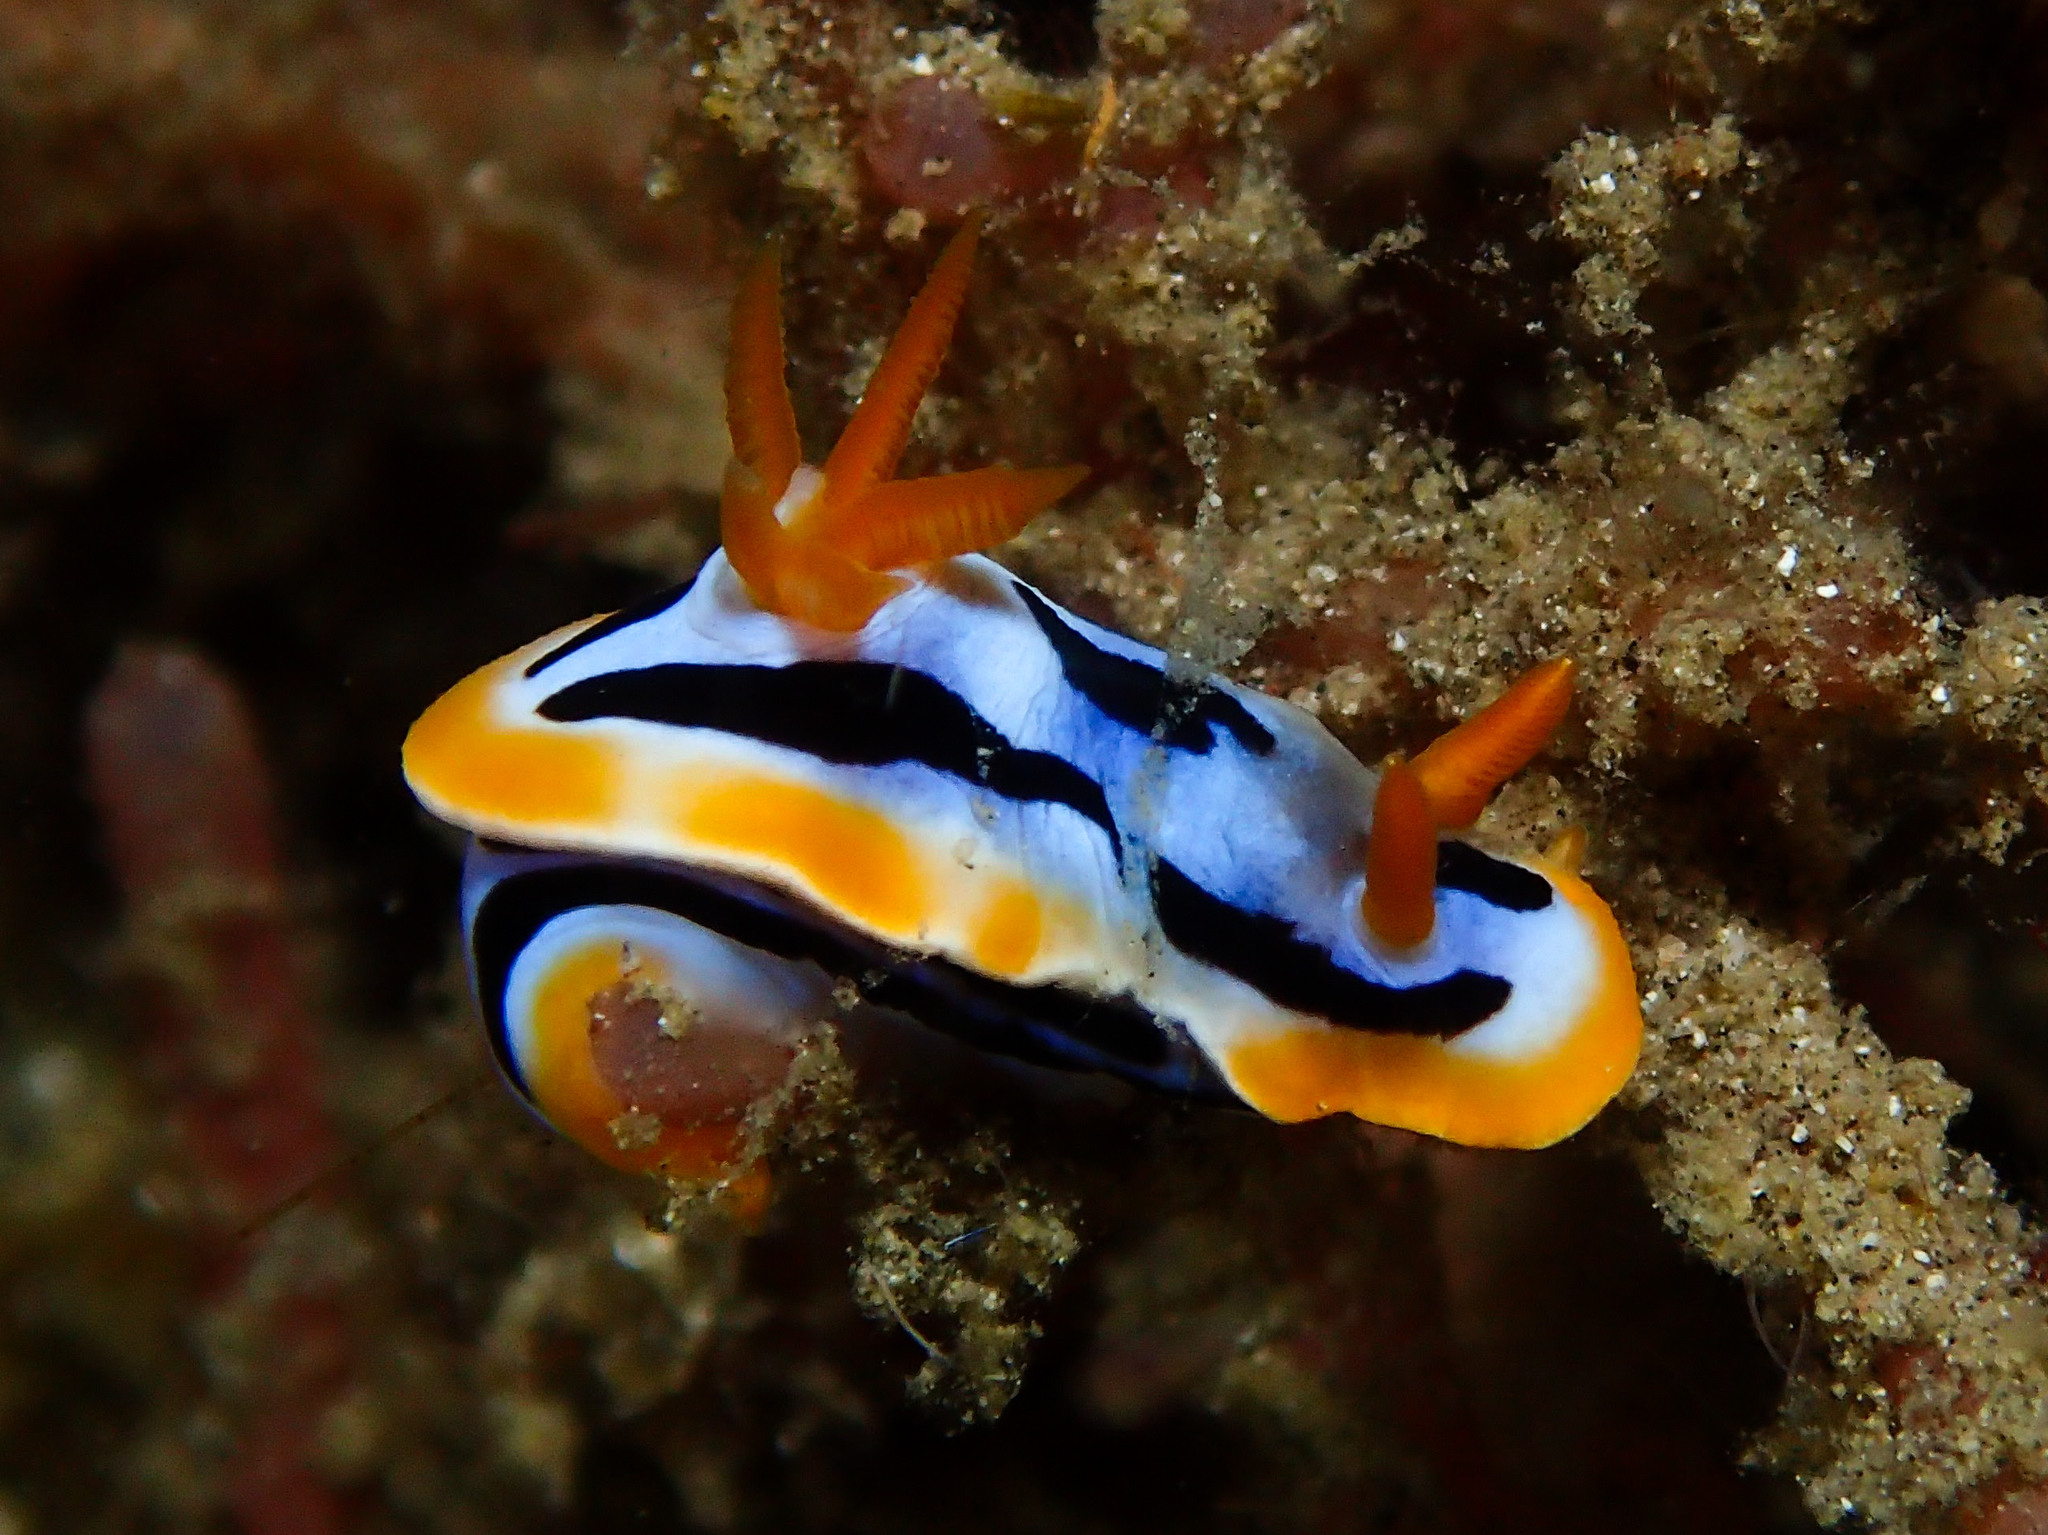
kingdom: Animalia
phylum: Mollusca
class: Gastropoda
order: Nudibranchia
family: Chromodorididae
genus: Chromodoris
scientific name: Chromodoris strigata
